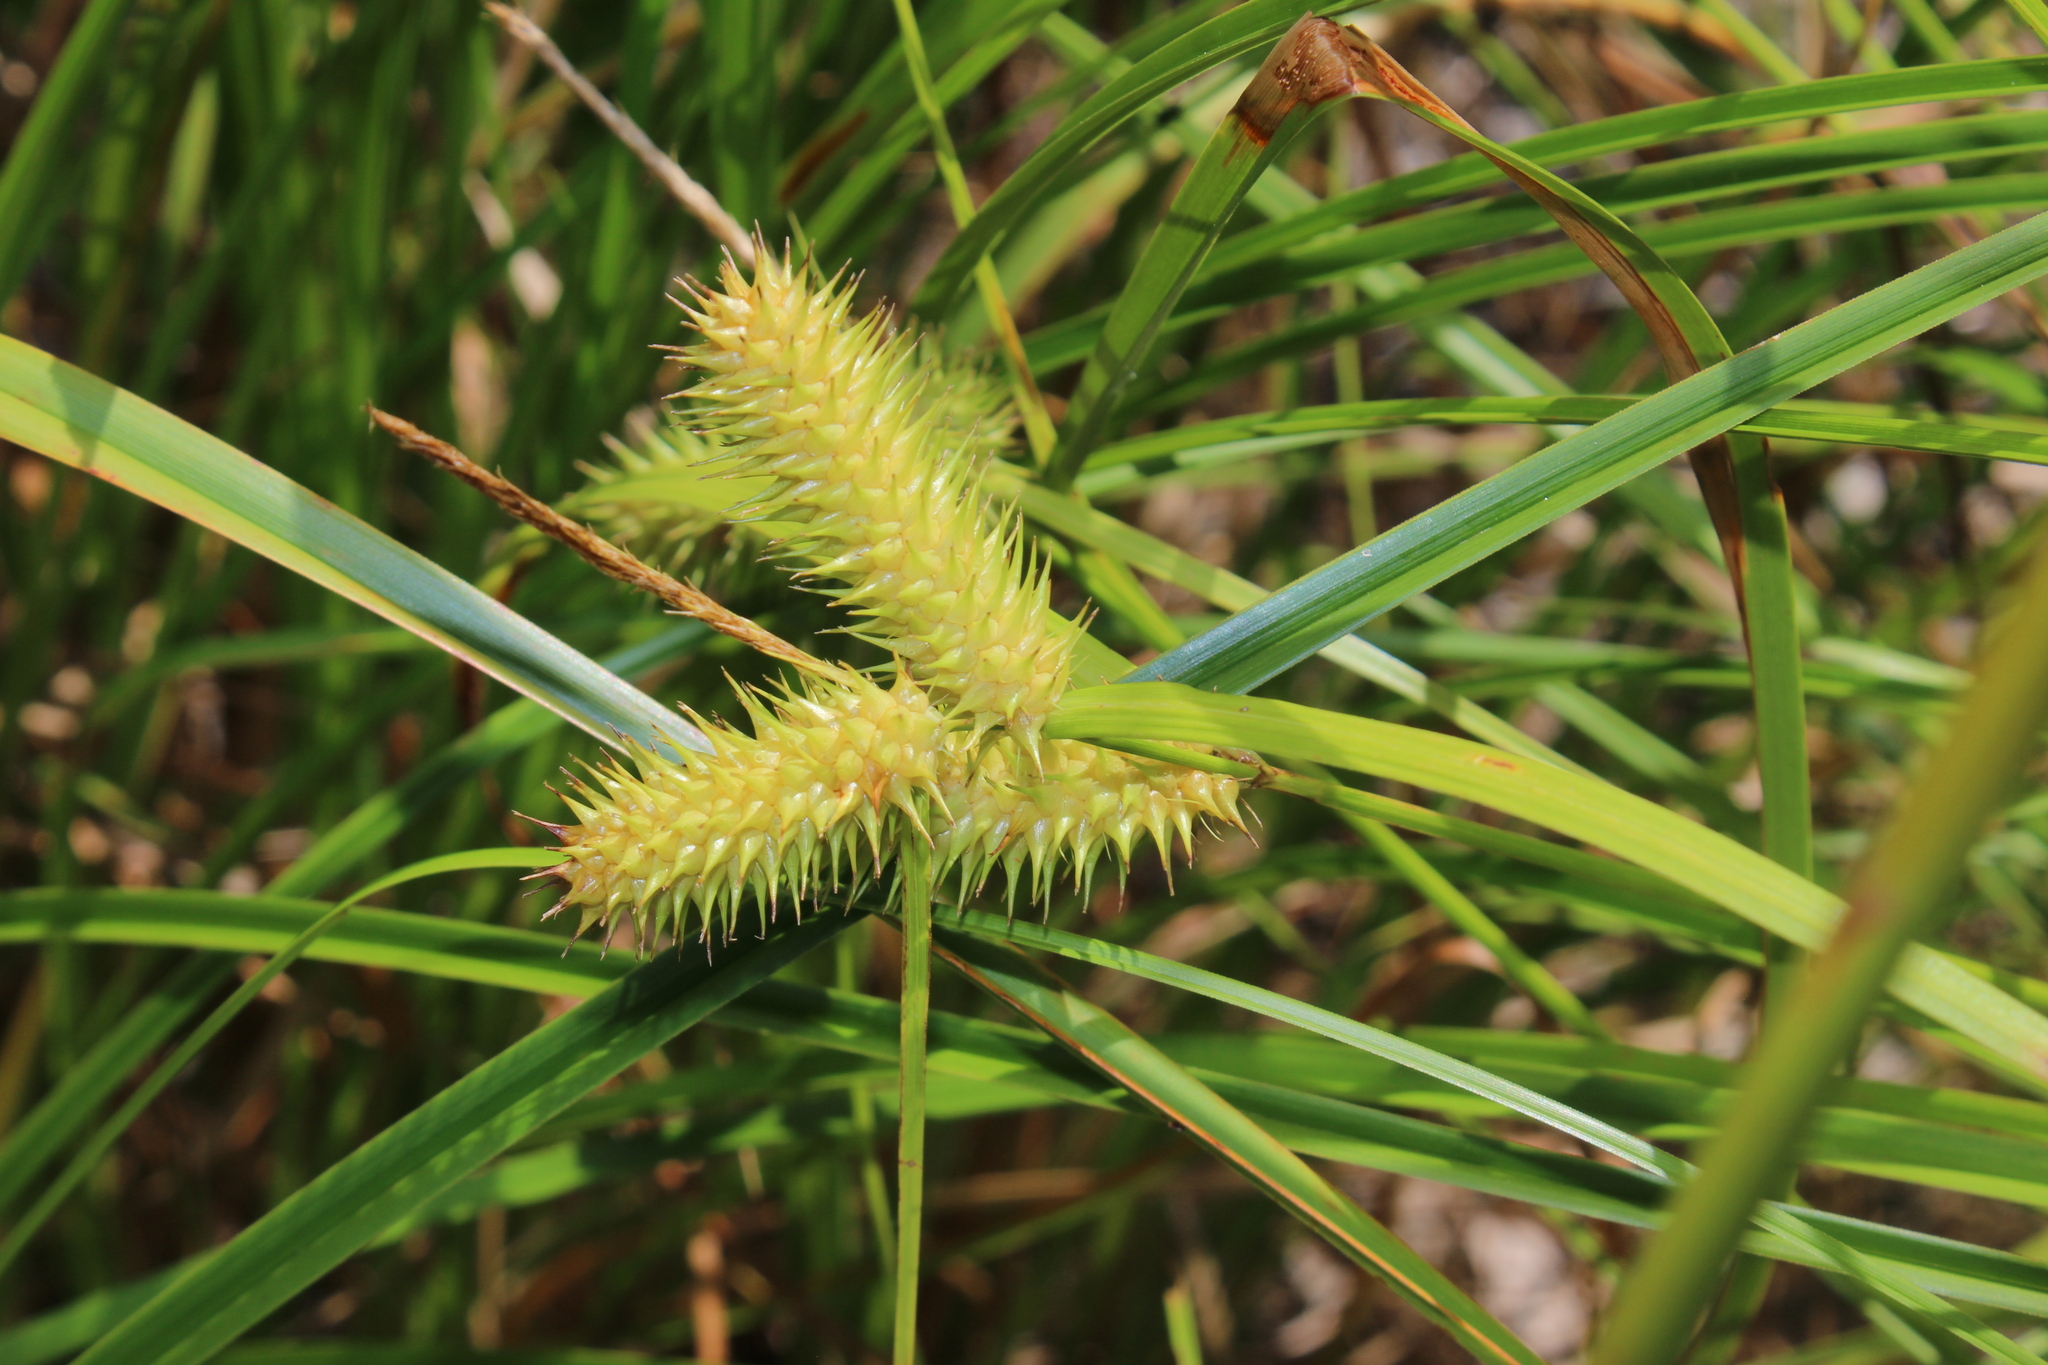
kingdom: Plantae
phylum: Tracheophyta
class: Liliopsida
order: Poales
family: Cyperaceae
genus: Carex
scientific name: Carex lurida
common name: Sallow sedge
